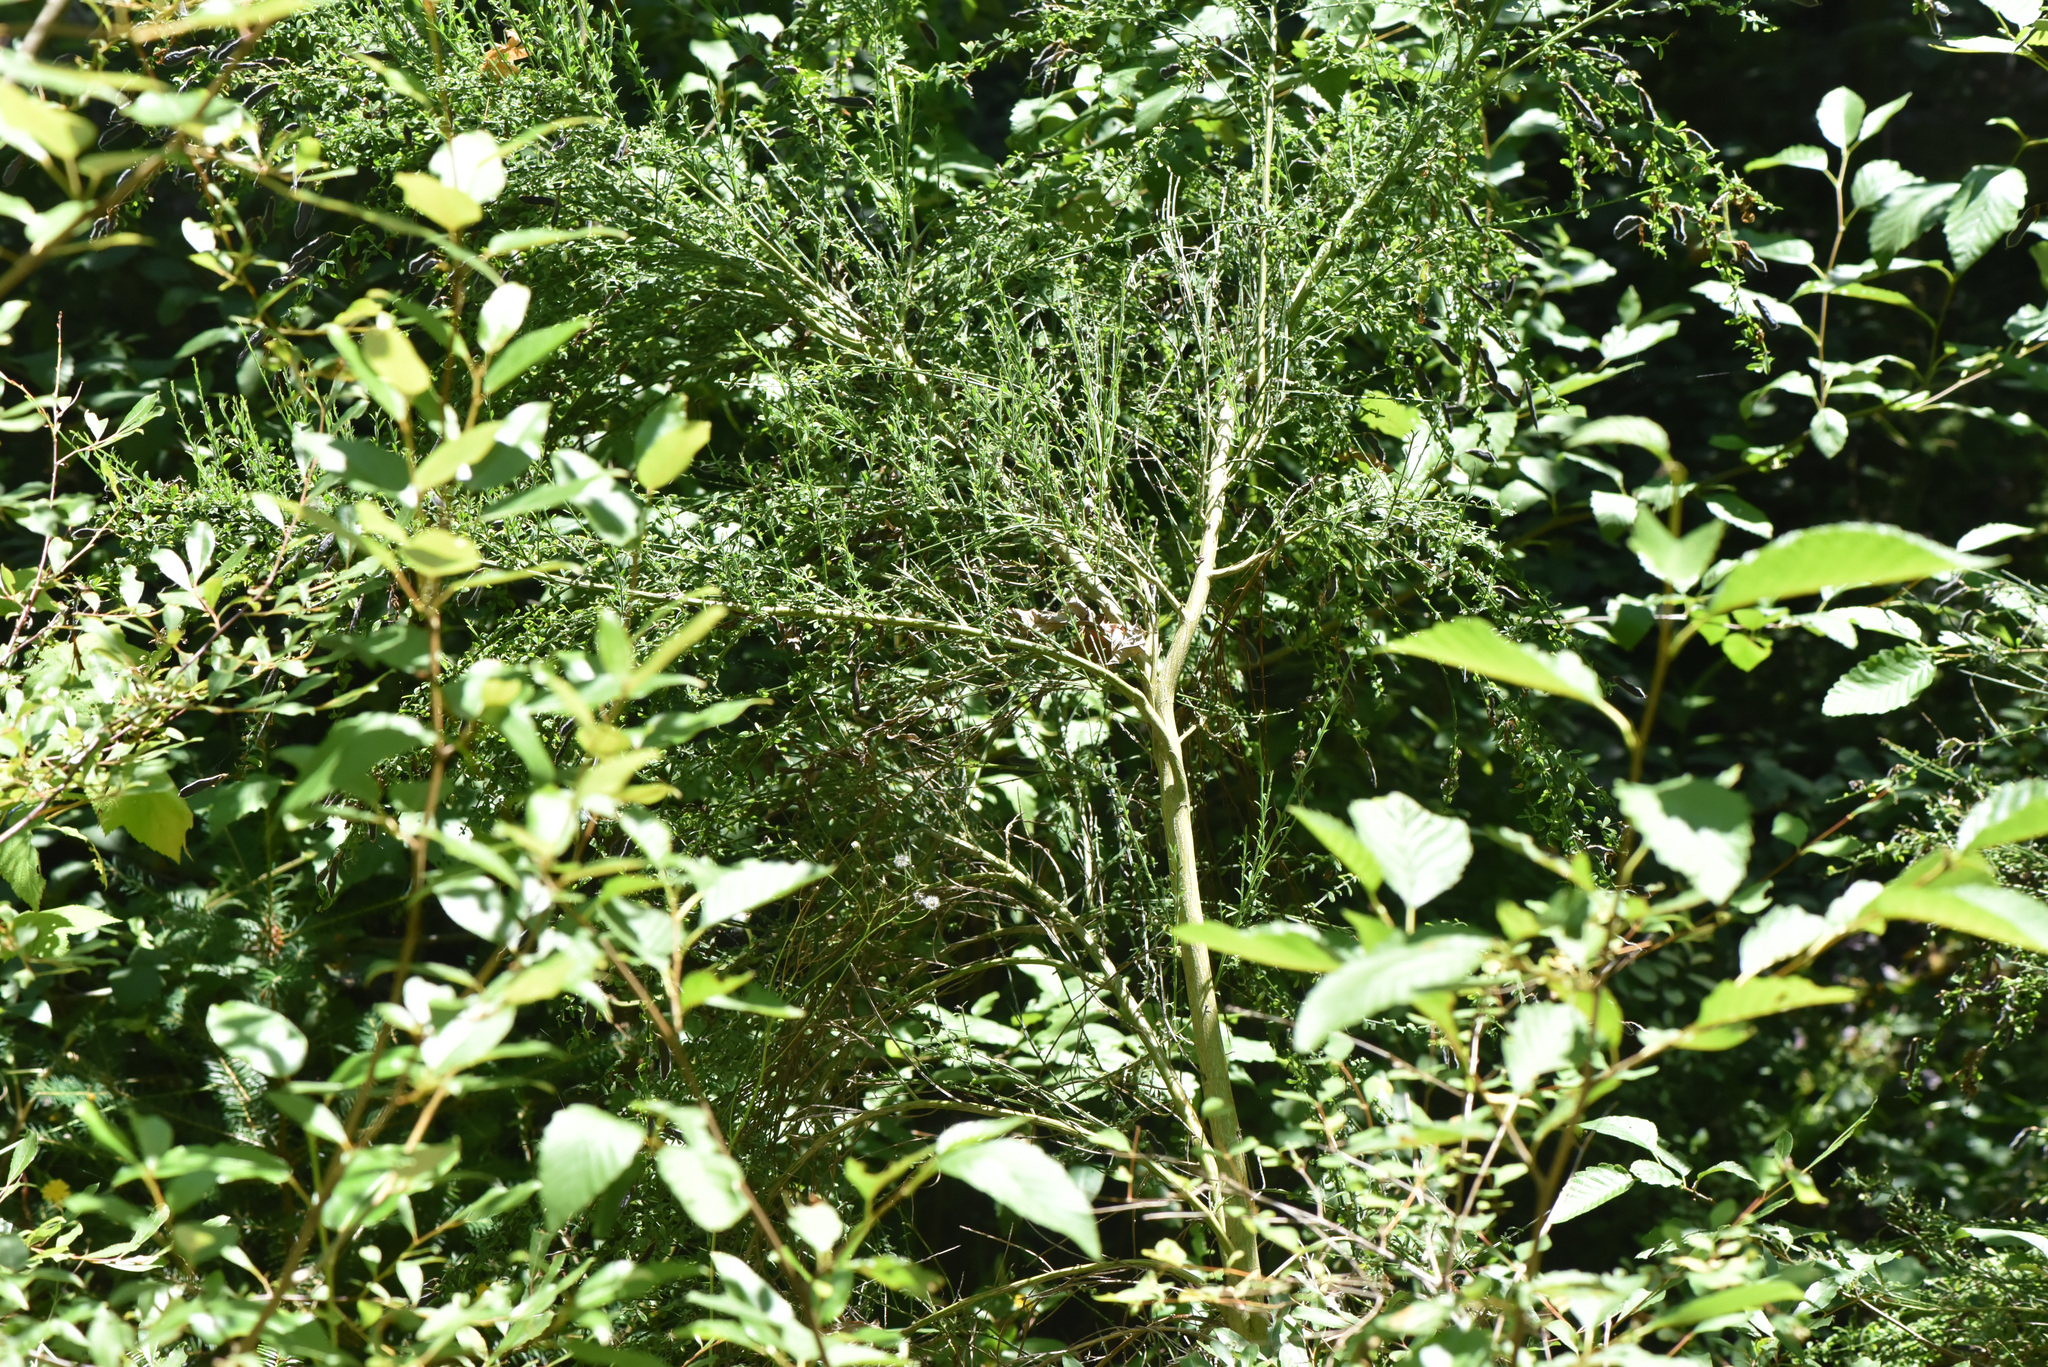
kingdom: Plantae
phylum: Tracheophyta
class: Magnoliopsida
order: Fabales
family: Fabaceae
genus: Cytisus
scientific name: Cytisus scoparius
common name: Scotch broom
